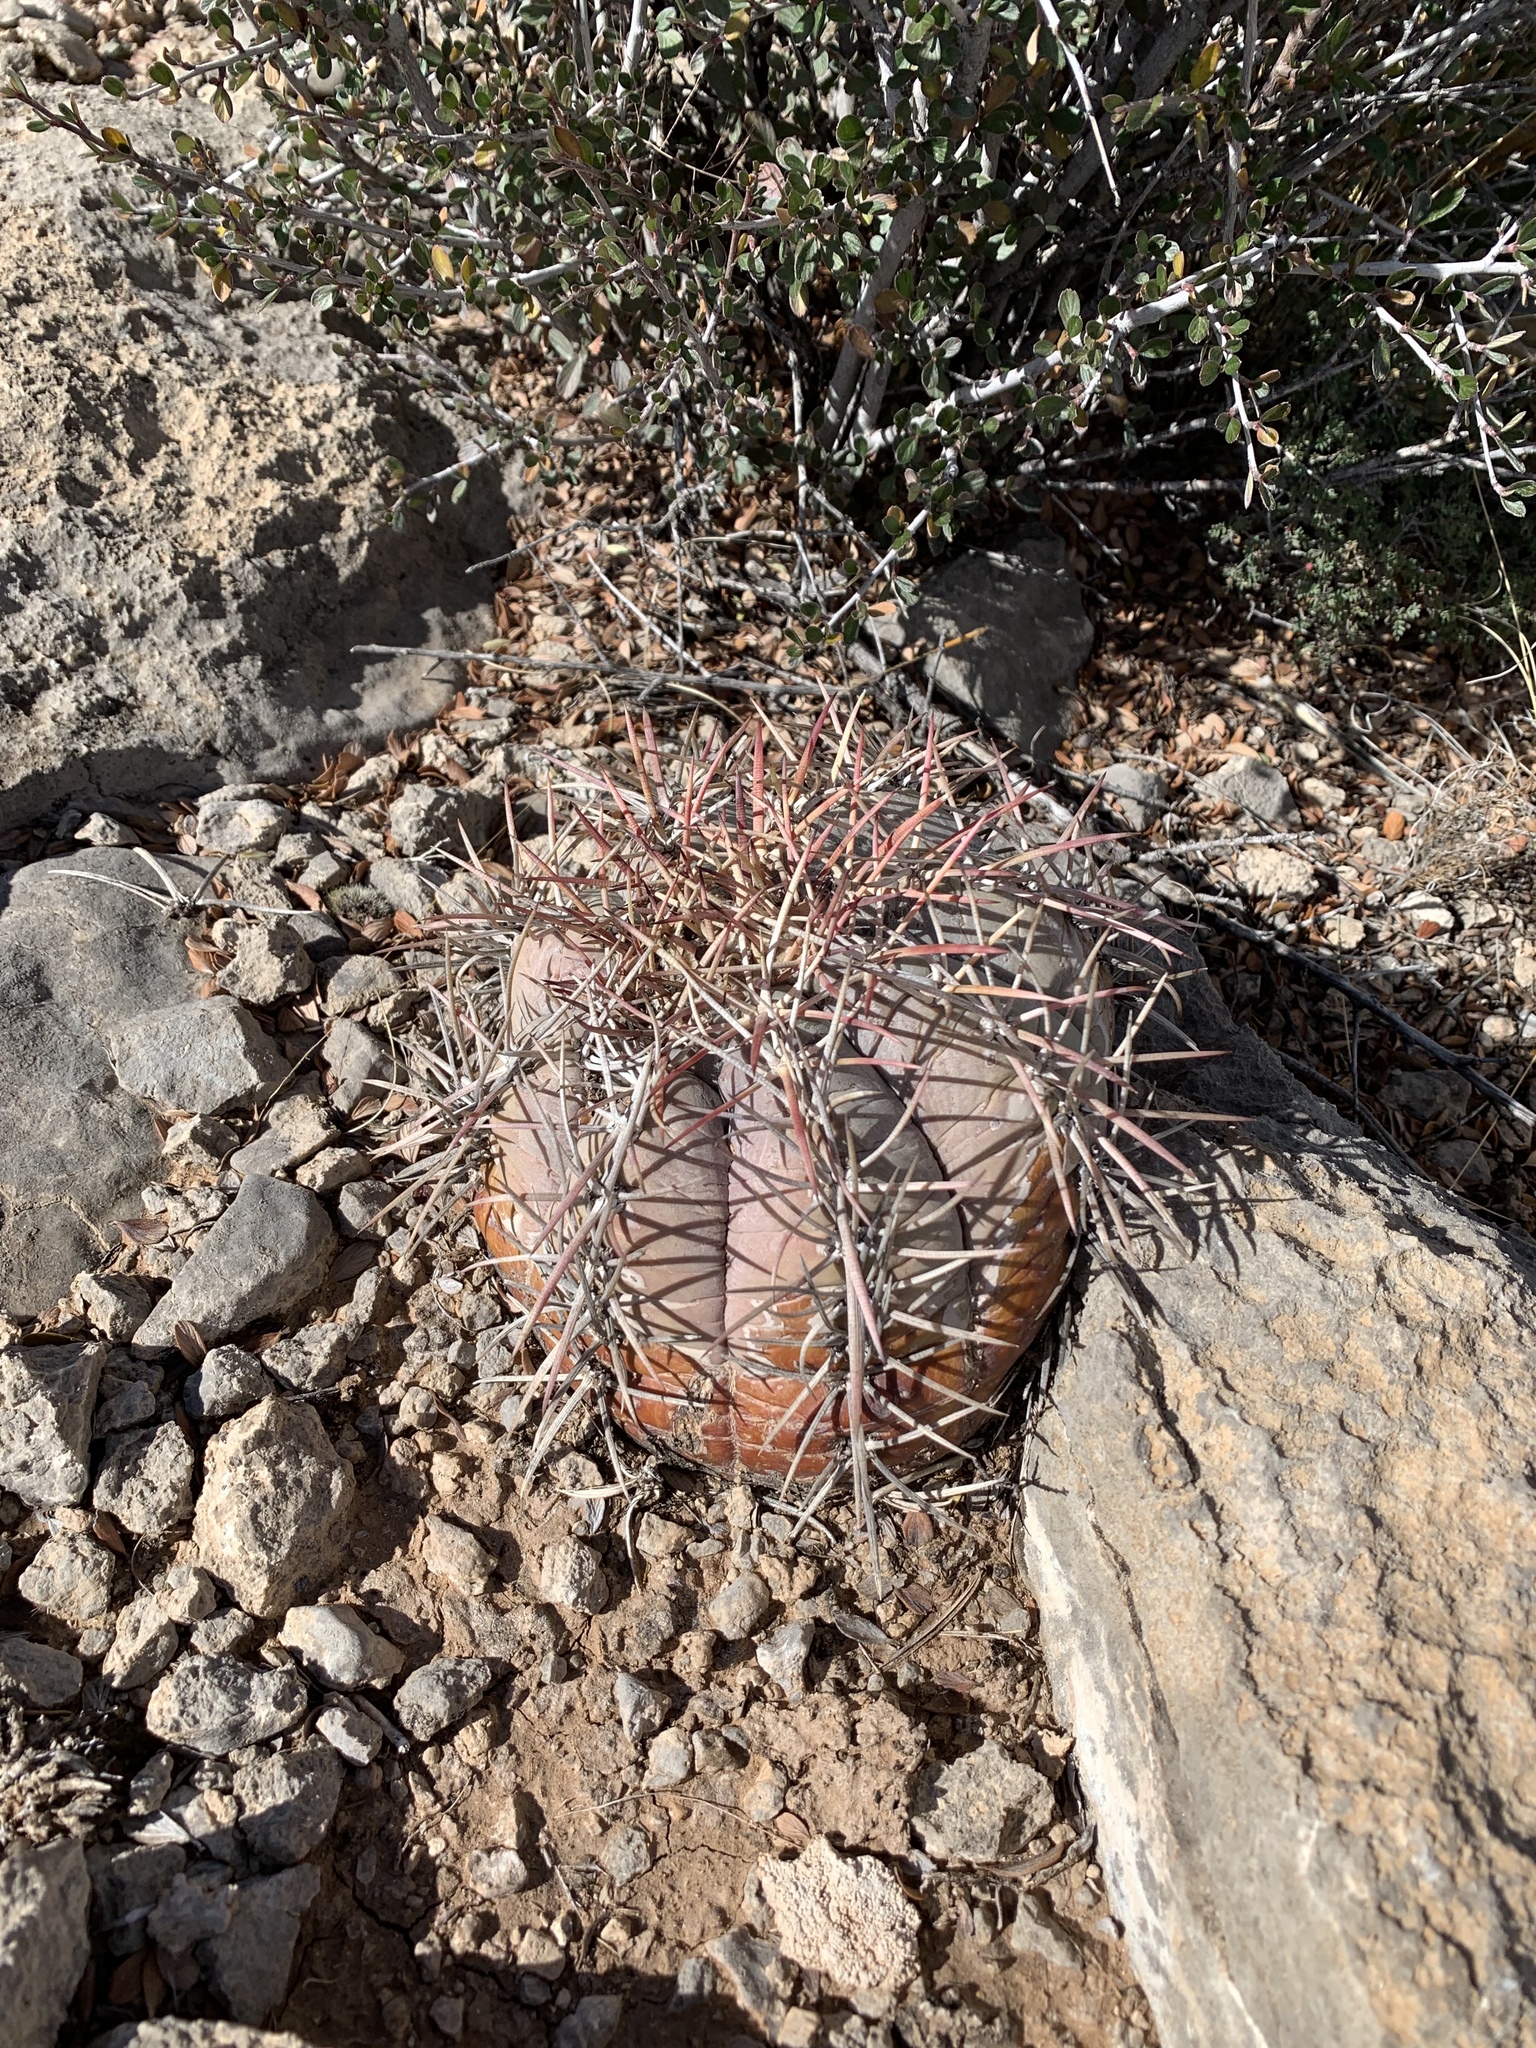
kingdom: Plantae
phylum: Tracheophyta
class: Magnoliopsida
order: Caryophyllales
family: Cactaceae
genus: Echinocactus
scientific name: Echinocactus horizonthalonius
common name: Devilshead
